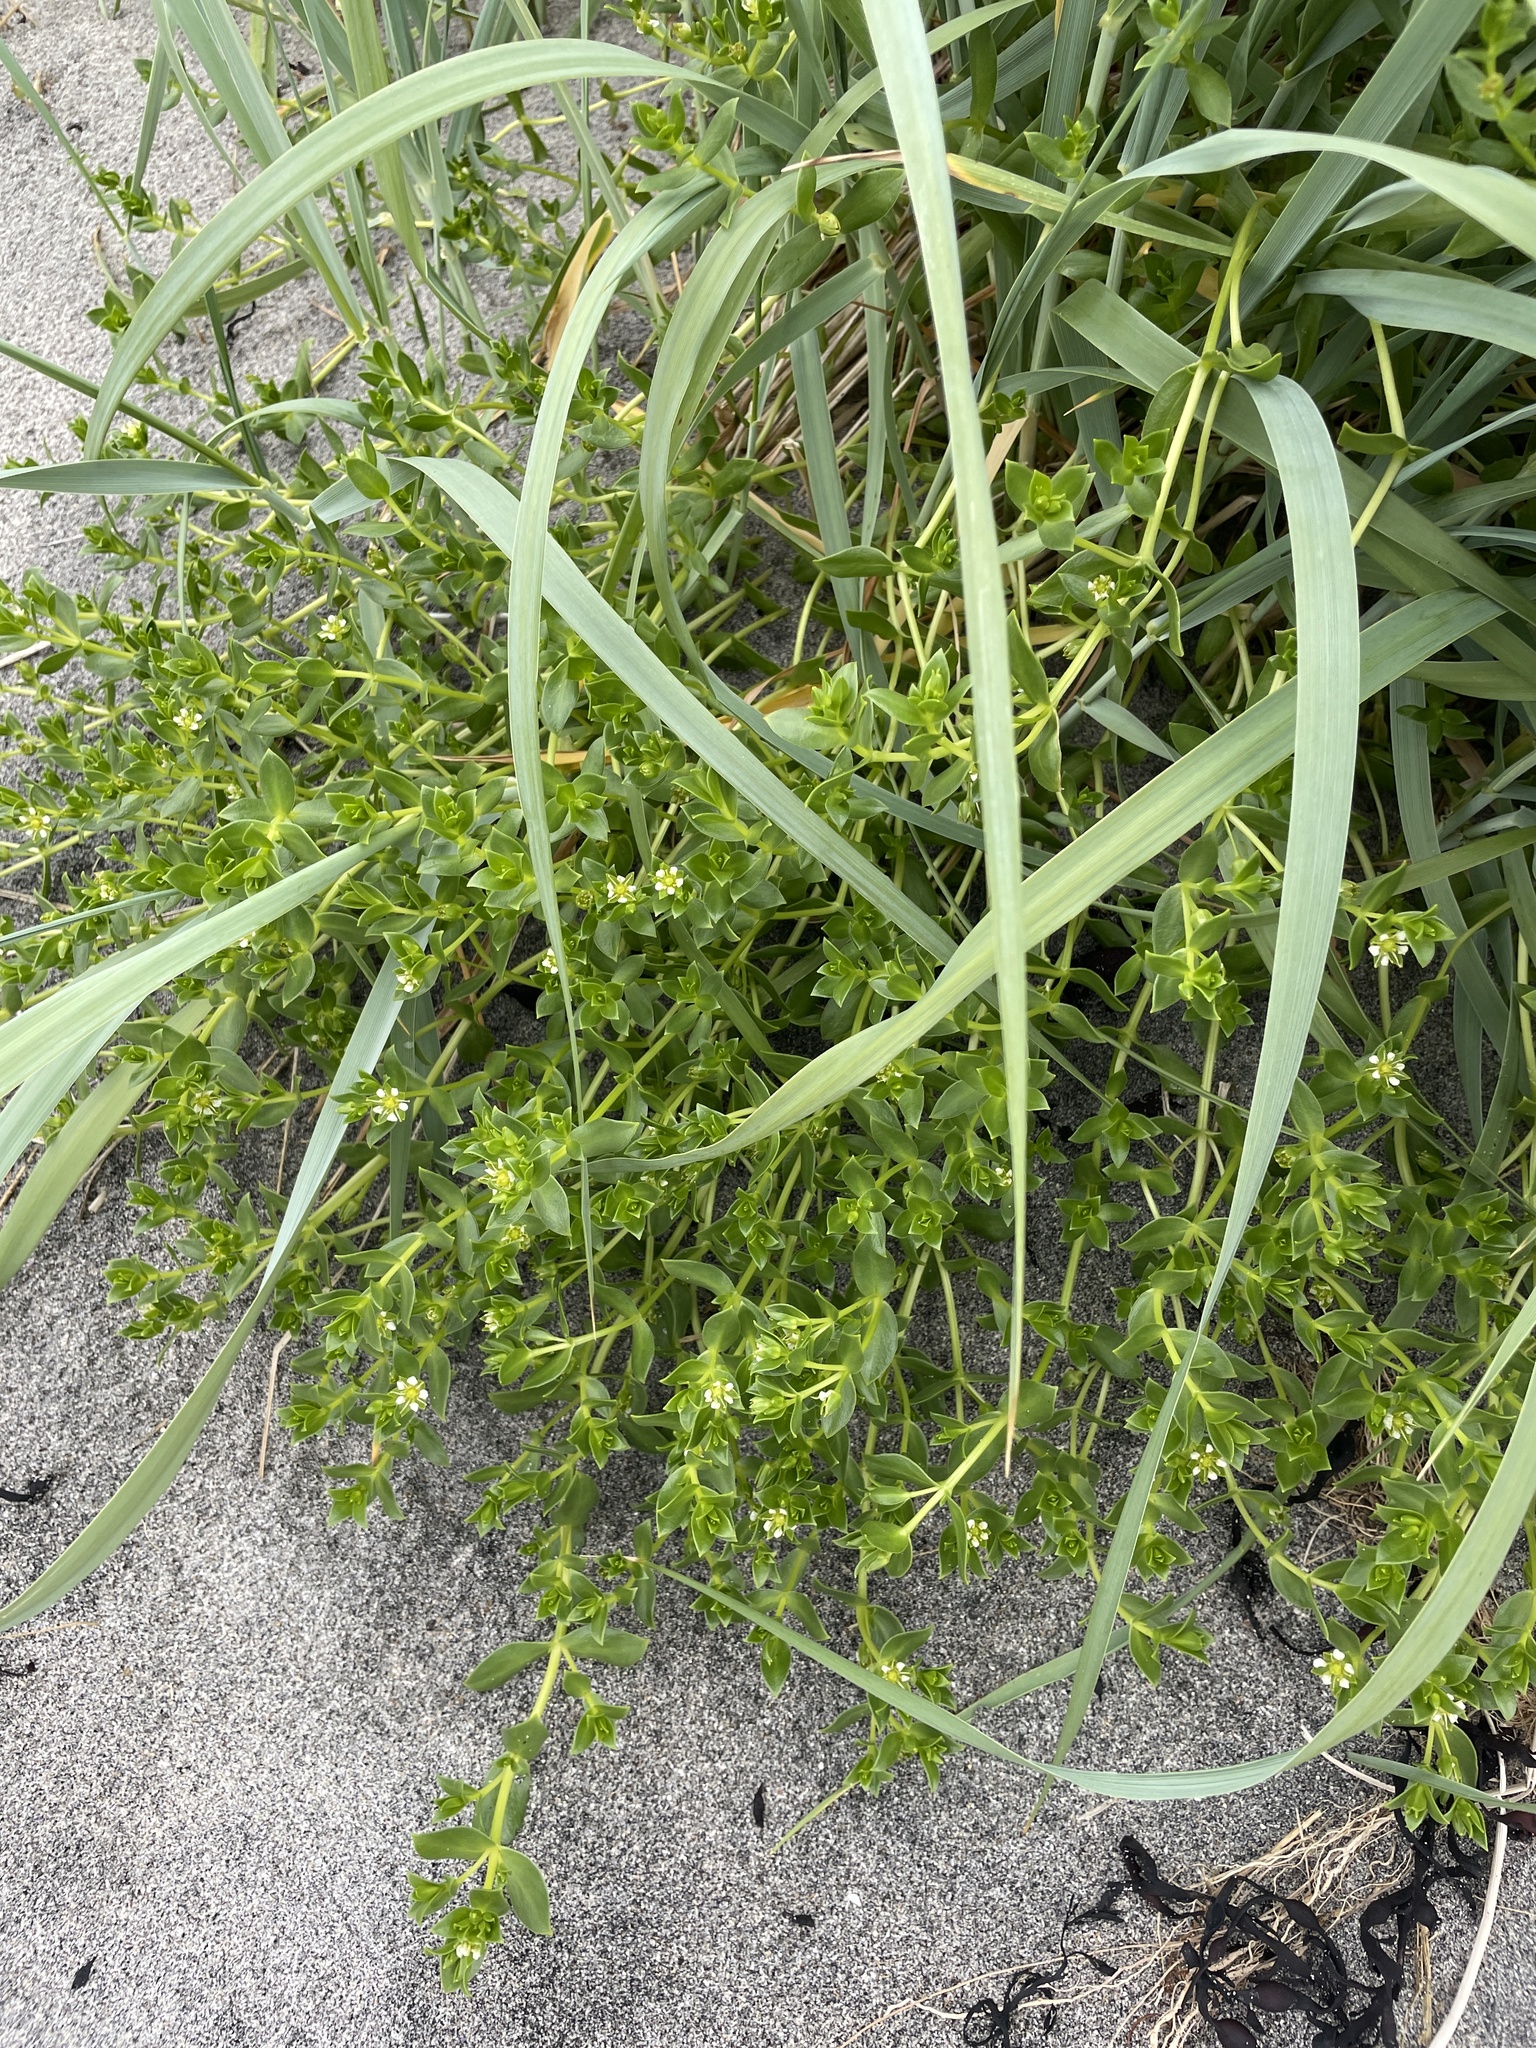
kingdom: Plantae
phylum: Tracheophyta
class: Magnoliopsida
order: Caryophyllales
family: Caryophyllaceae
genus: Honckenya
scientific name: Honckenya peploides
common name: Sea sandwort
